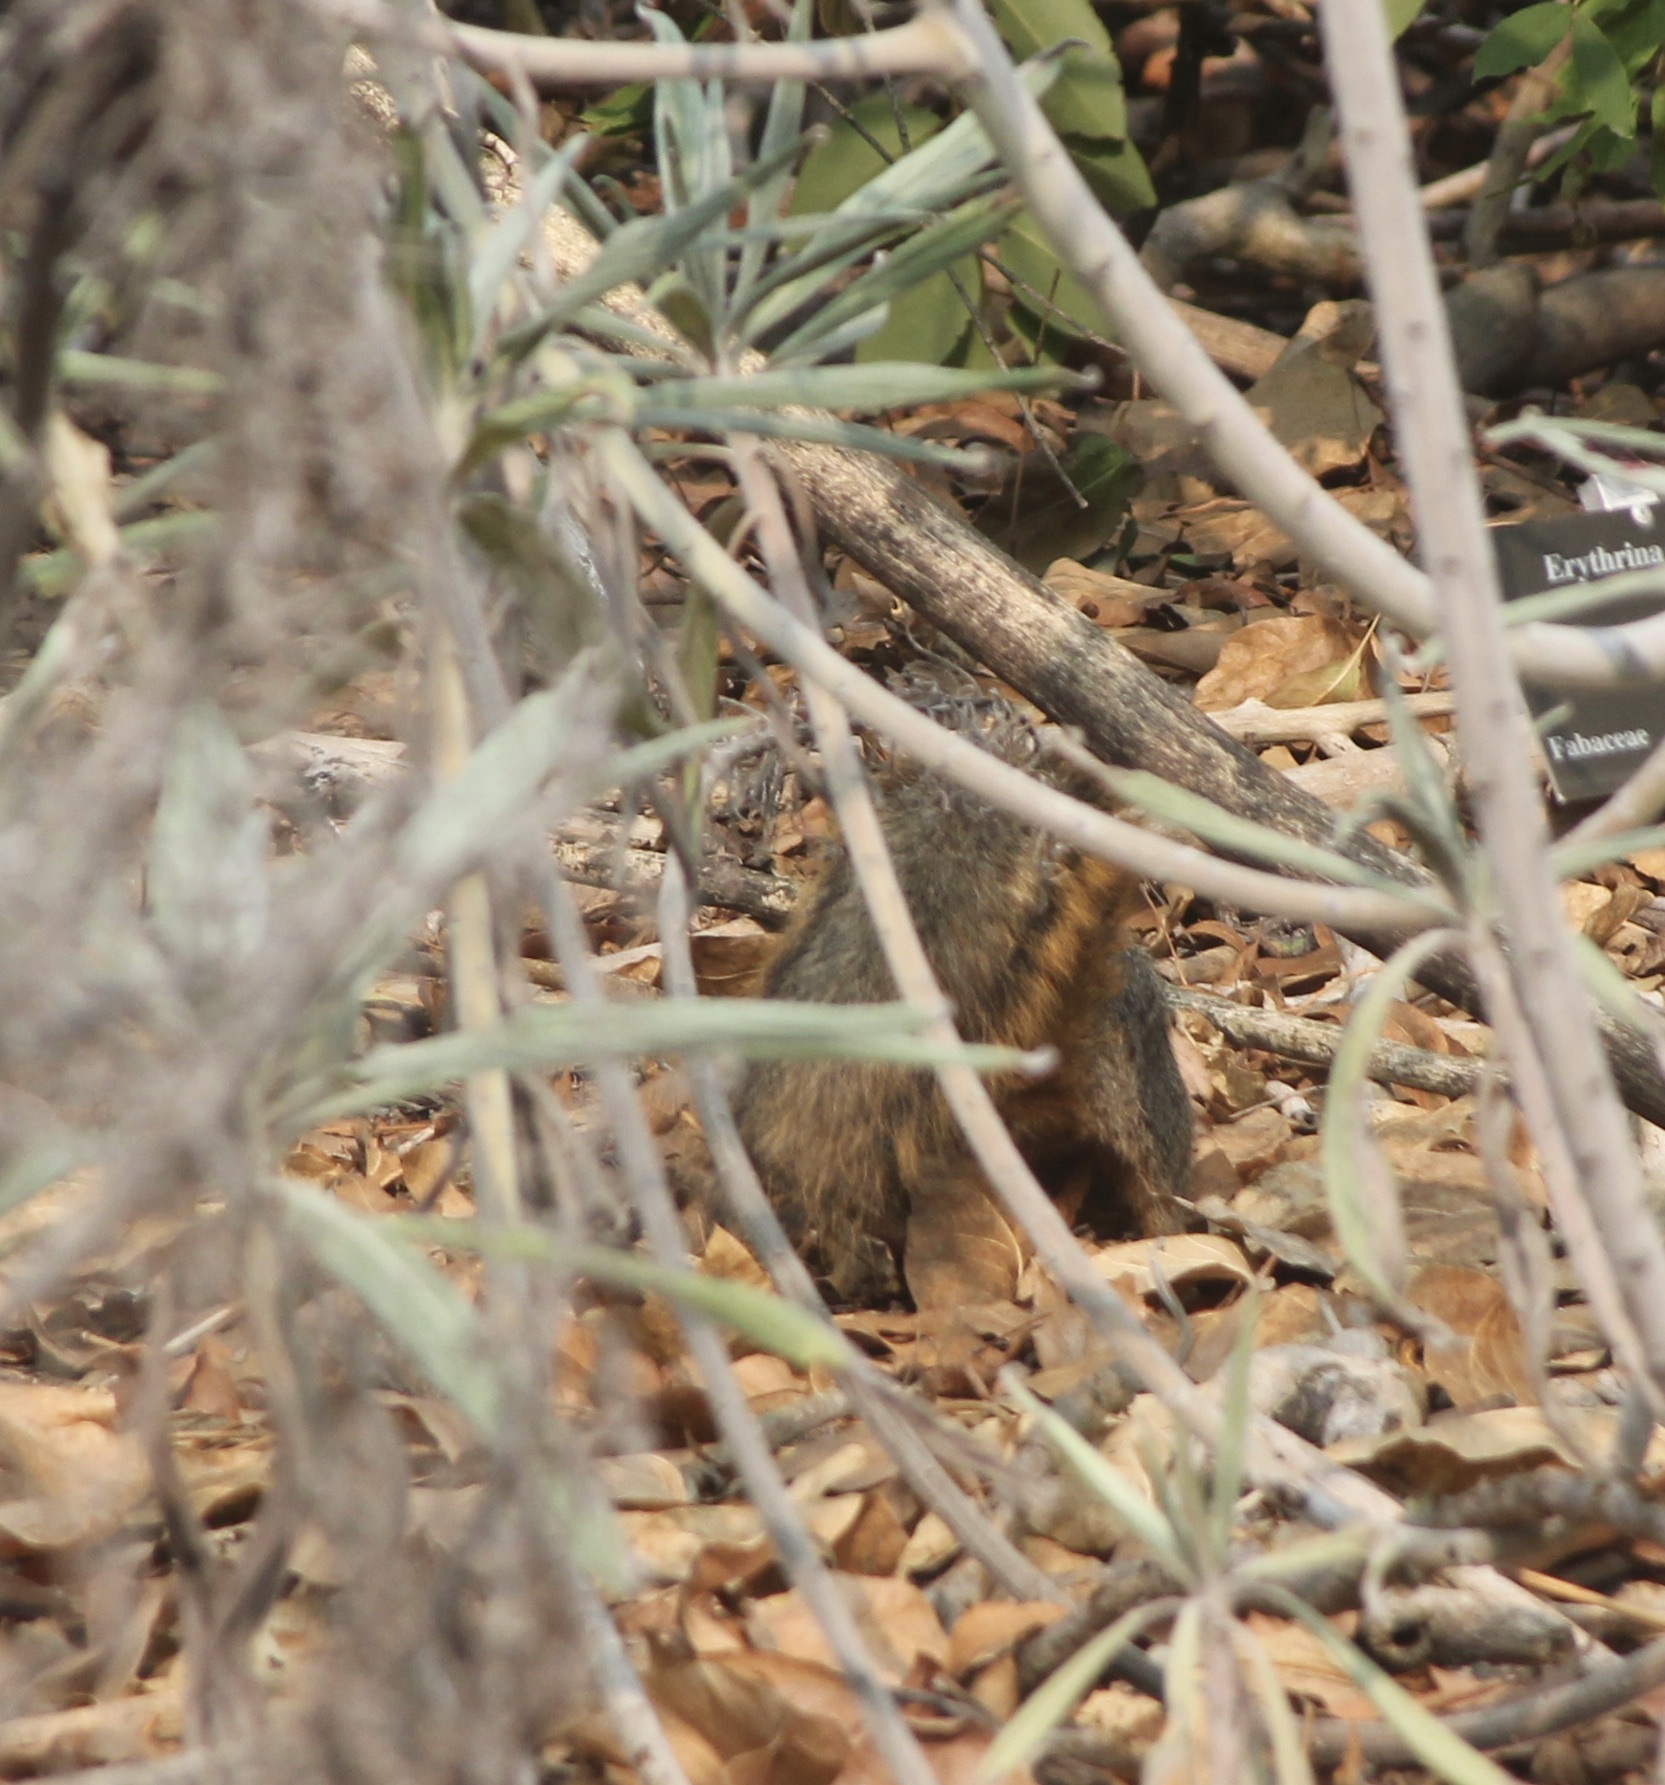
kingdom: Animalia
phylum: Chordata
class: Mammalia
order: Rodentia
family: Sciuridae
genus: Sciurus
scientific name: Sciurus niger
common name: Fox squirrel
